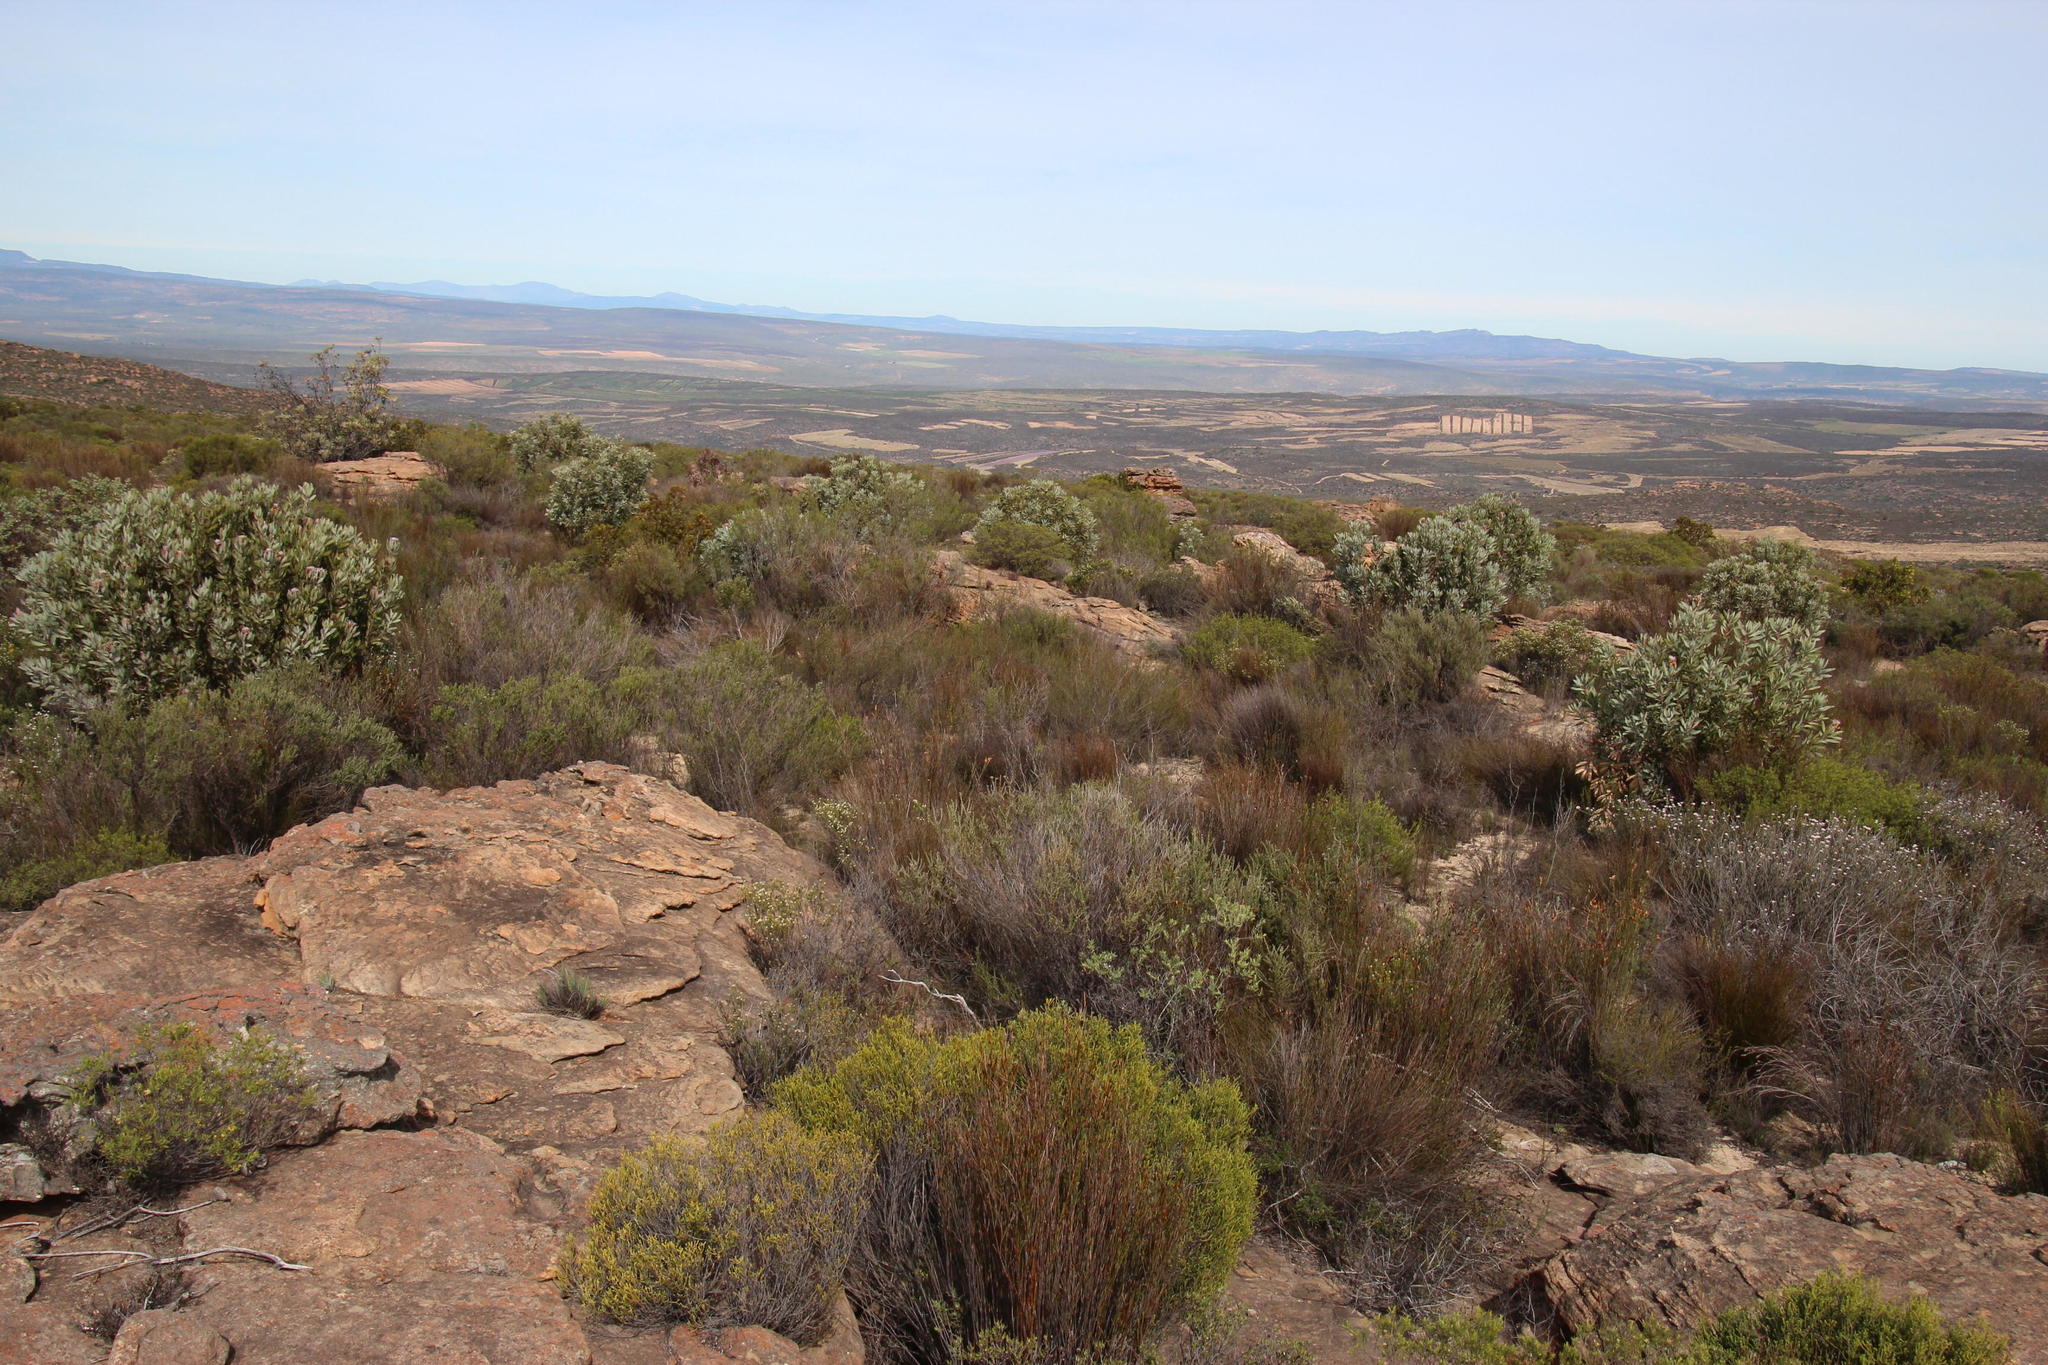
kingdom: Plantae
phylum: Tracheophyta
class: Magnoliopsida
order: Proteales
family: Proteaceae
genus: Protea
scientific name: Protea laurifolia
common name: Grey-leaf sugarbsh
